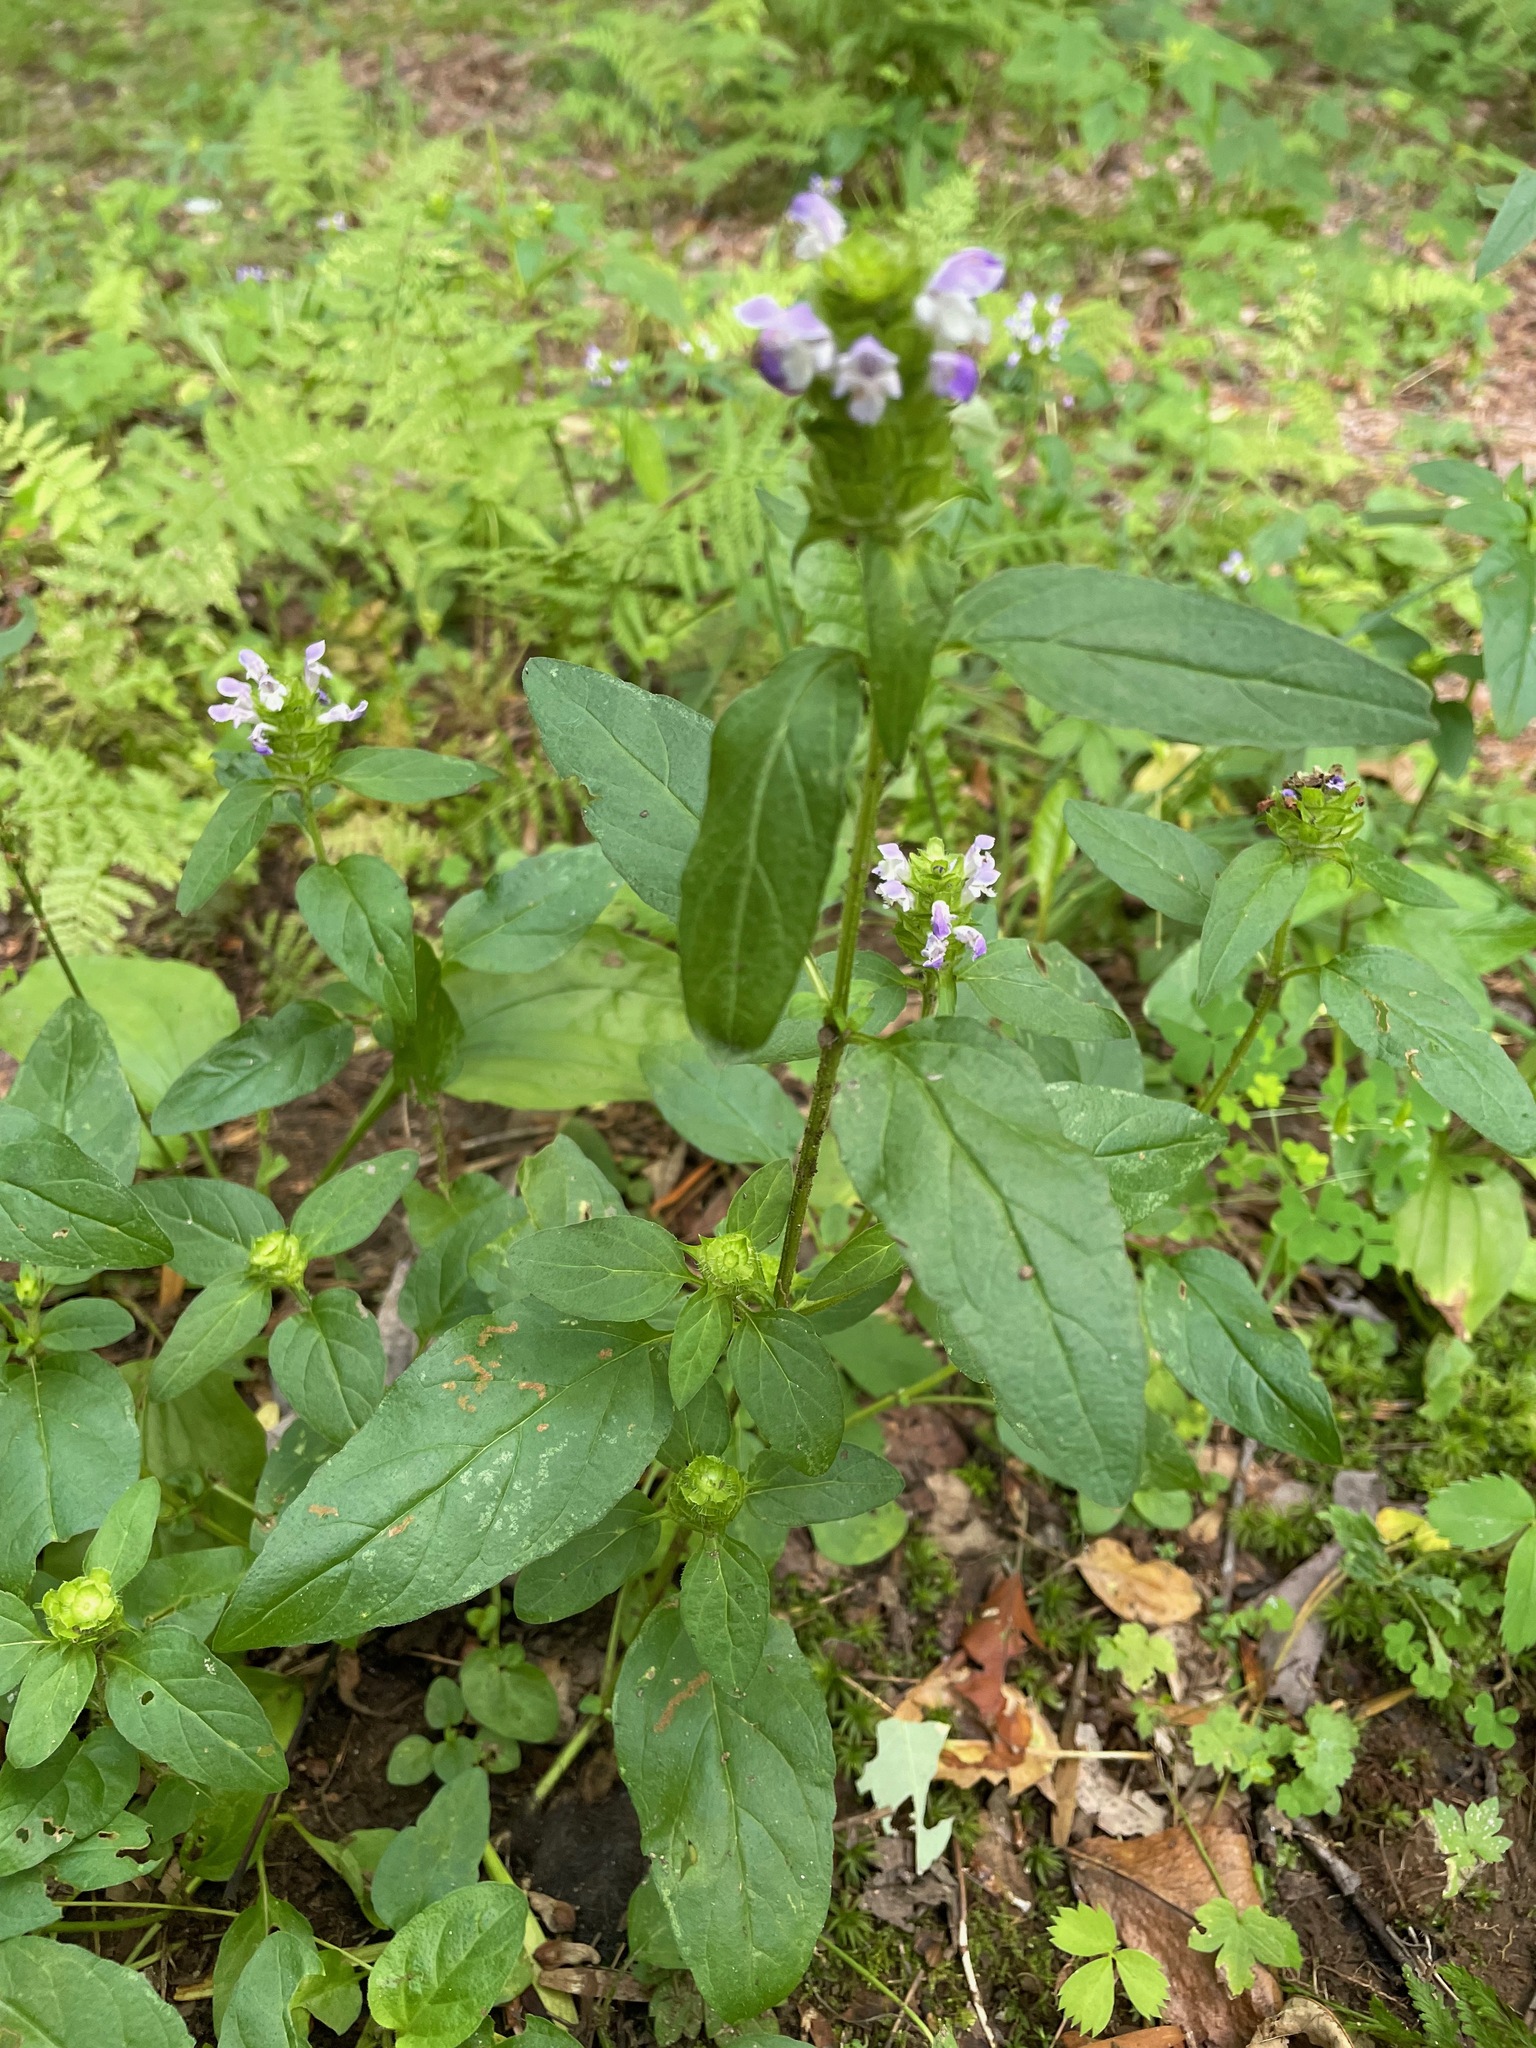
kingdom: Plantae
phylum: Tracheophyta
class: Magnoliopsida
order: Lamiales
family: Lamiaceae
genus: Prunella
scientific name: Prunella vulgaris
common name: Heal-all
